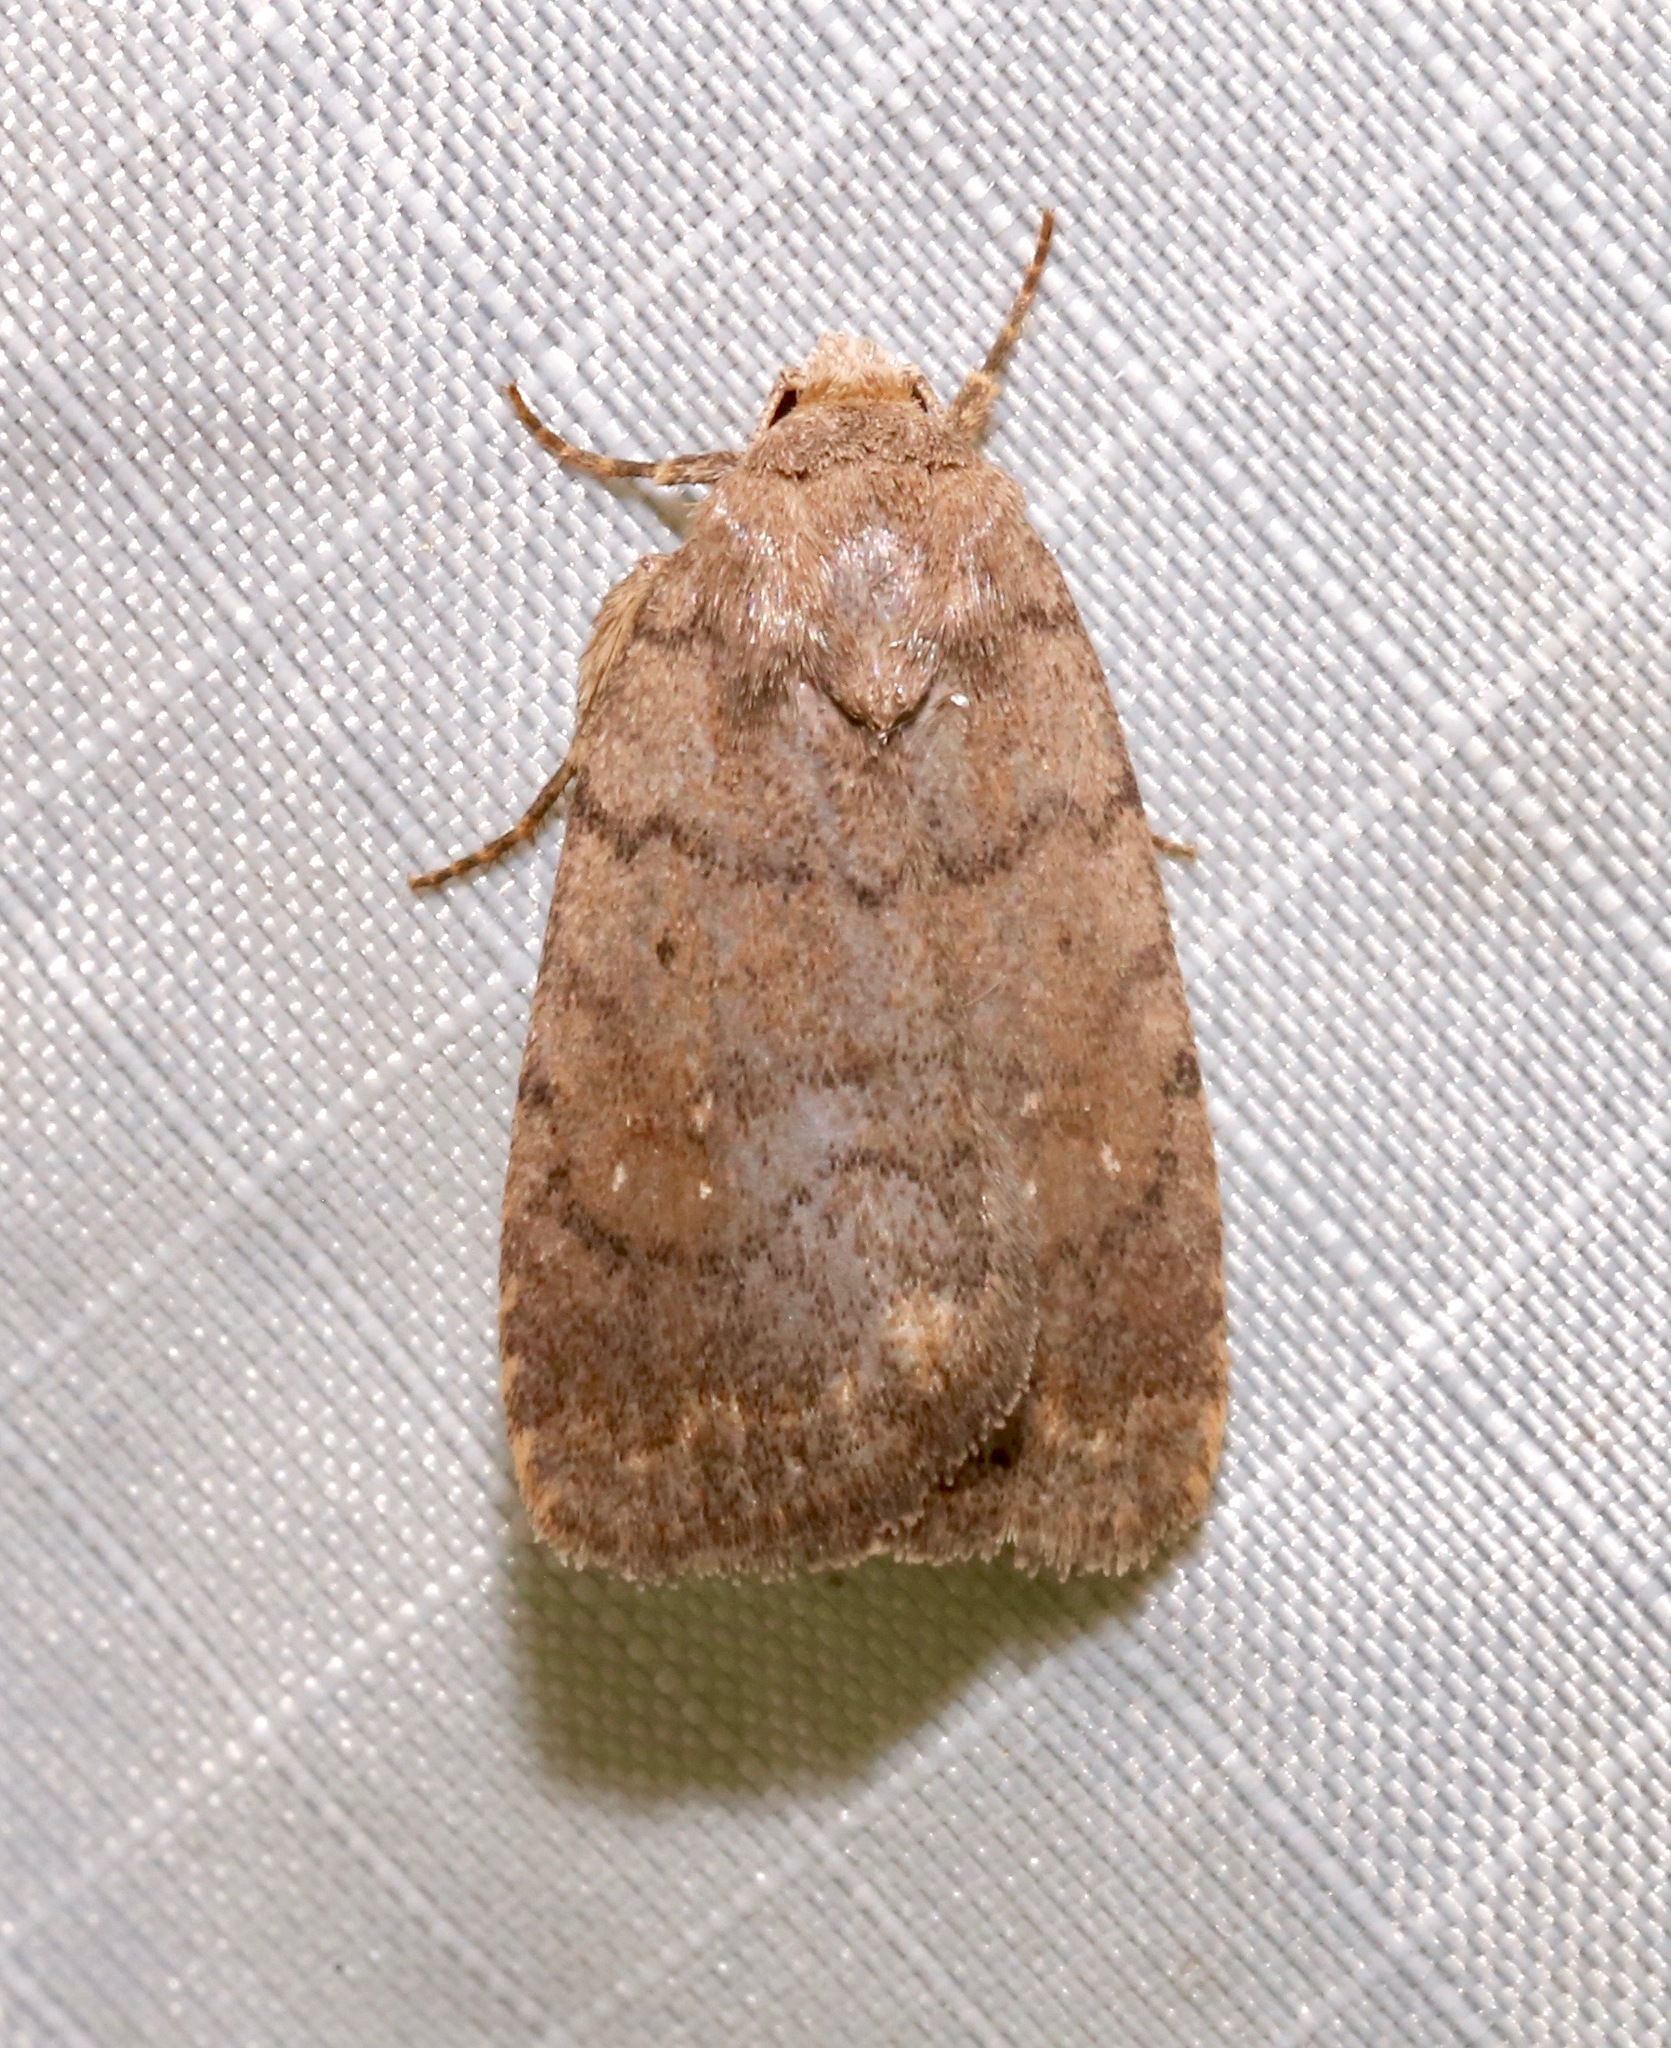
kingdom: Animalia
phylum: Arthropoda
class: Insecta
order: Lepidoptera
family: Noctuidae
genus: Athetis
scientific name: Athetis tarda
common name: Slowpoke moth
